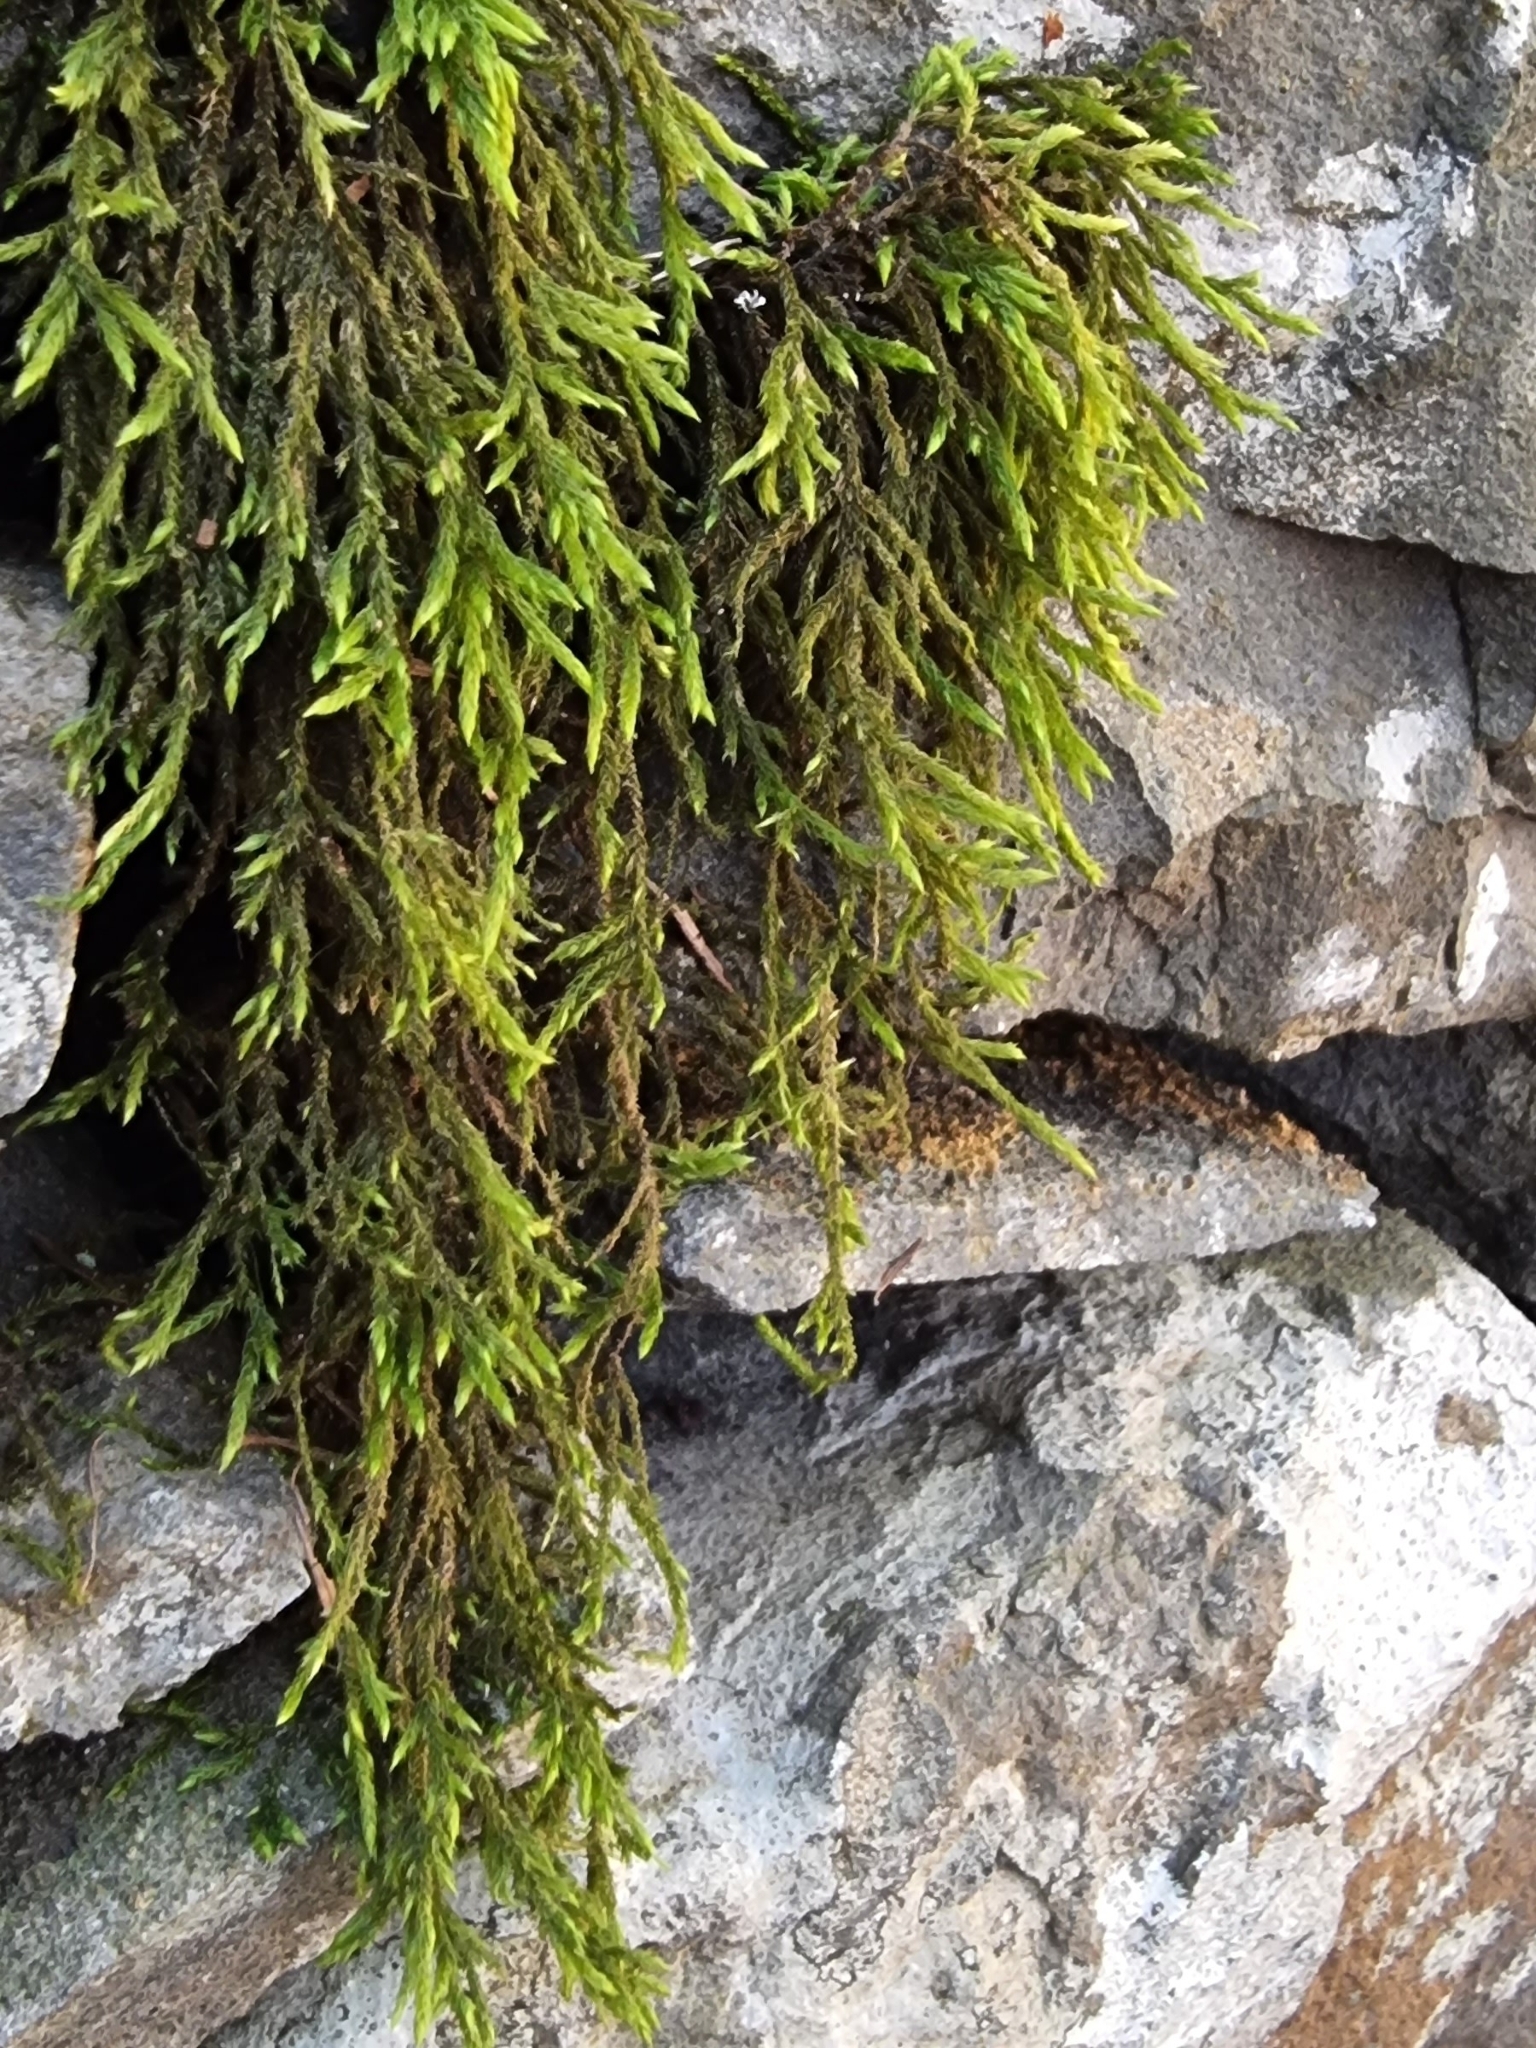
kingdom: Plantae
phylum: Bryophyta
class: Bryopsida
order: Hypnales
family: Myuriaceae
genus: Andoa
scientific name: Andoa berthelotiana
